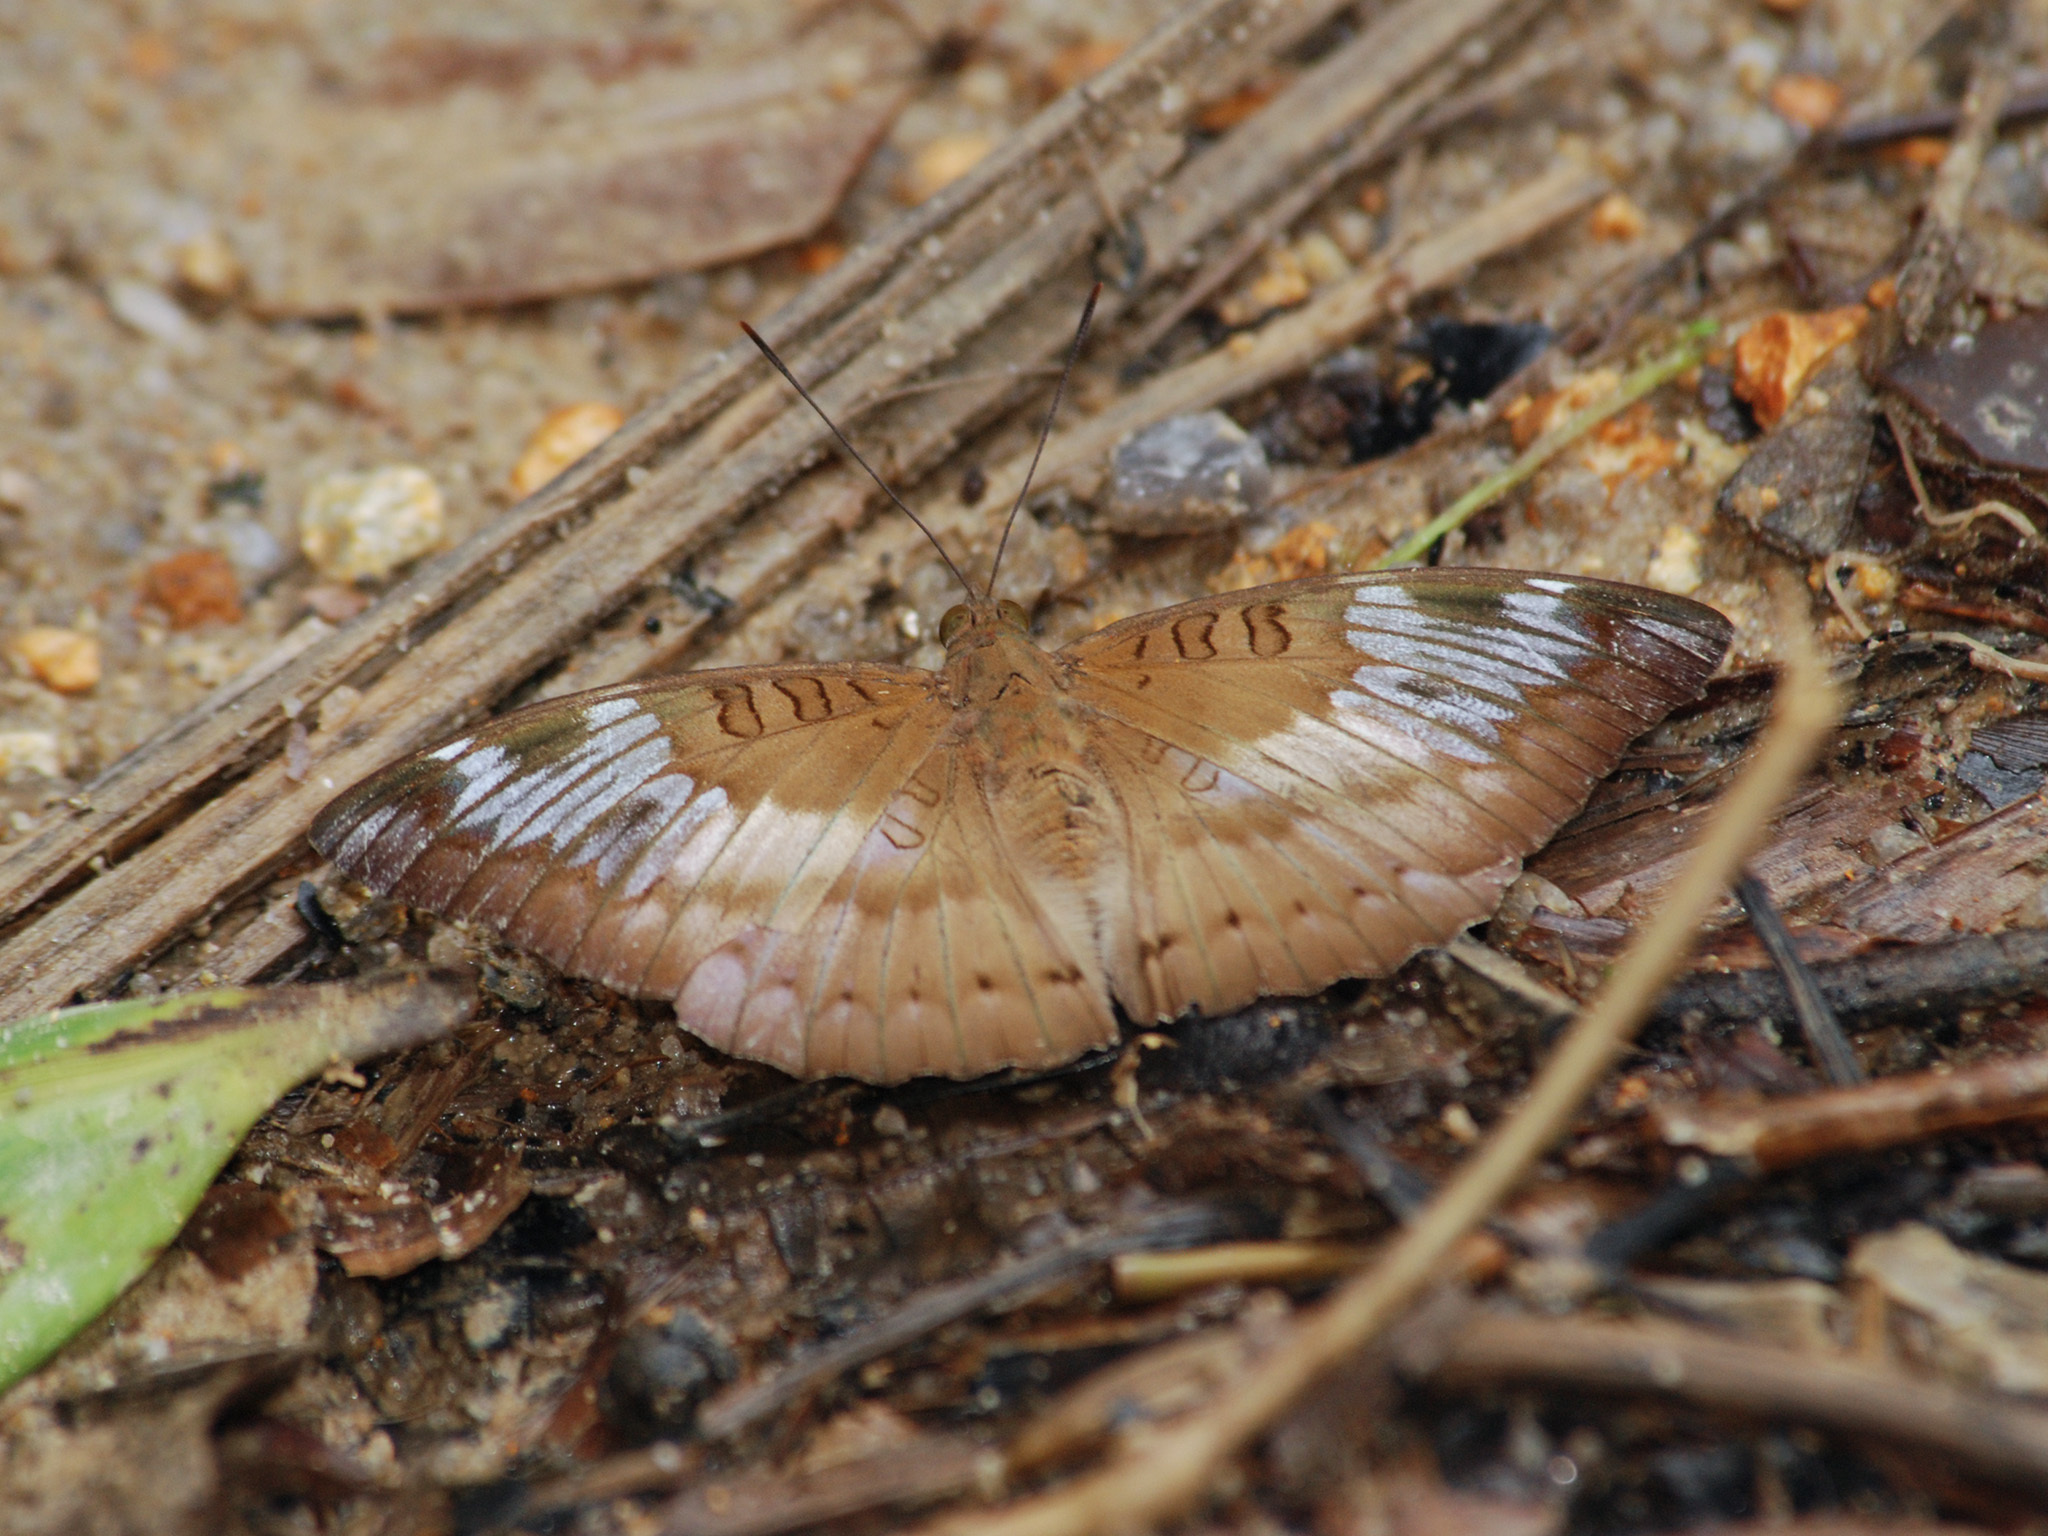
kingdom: Animalia
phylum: Arthropoda
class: Insecta
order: Lepidoptera
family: Nymphalidae
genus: Euthalia
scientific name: Euthalia alpheda
